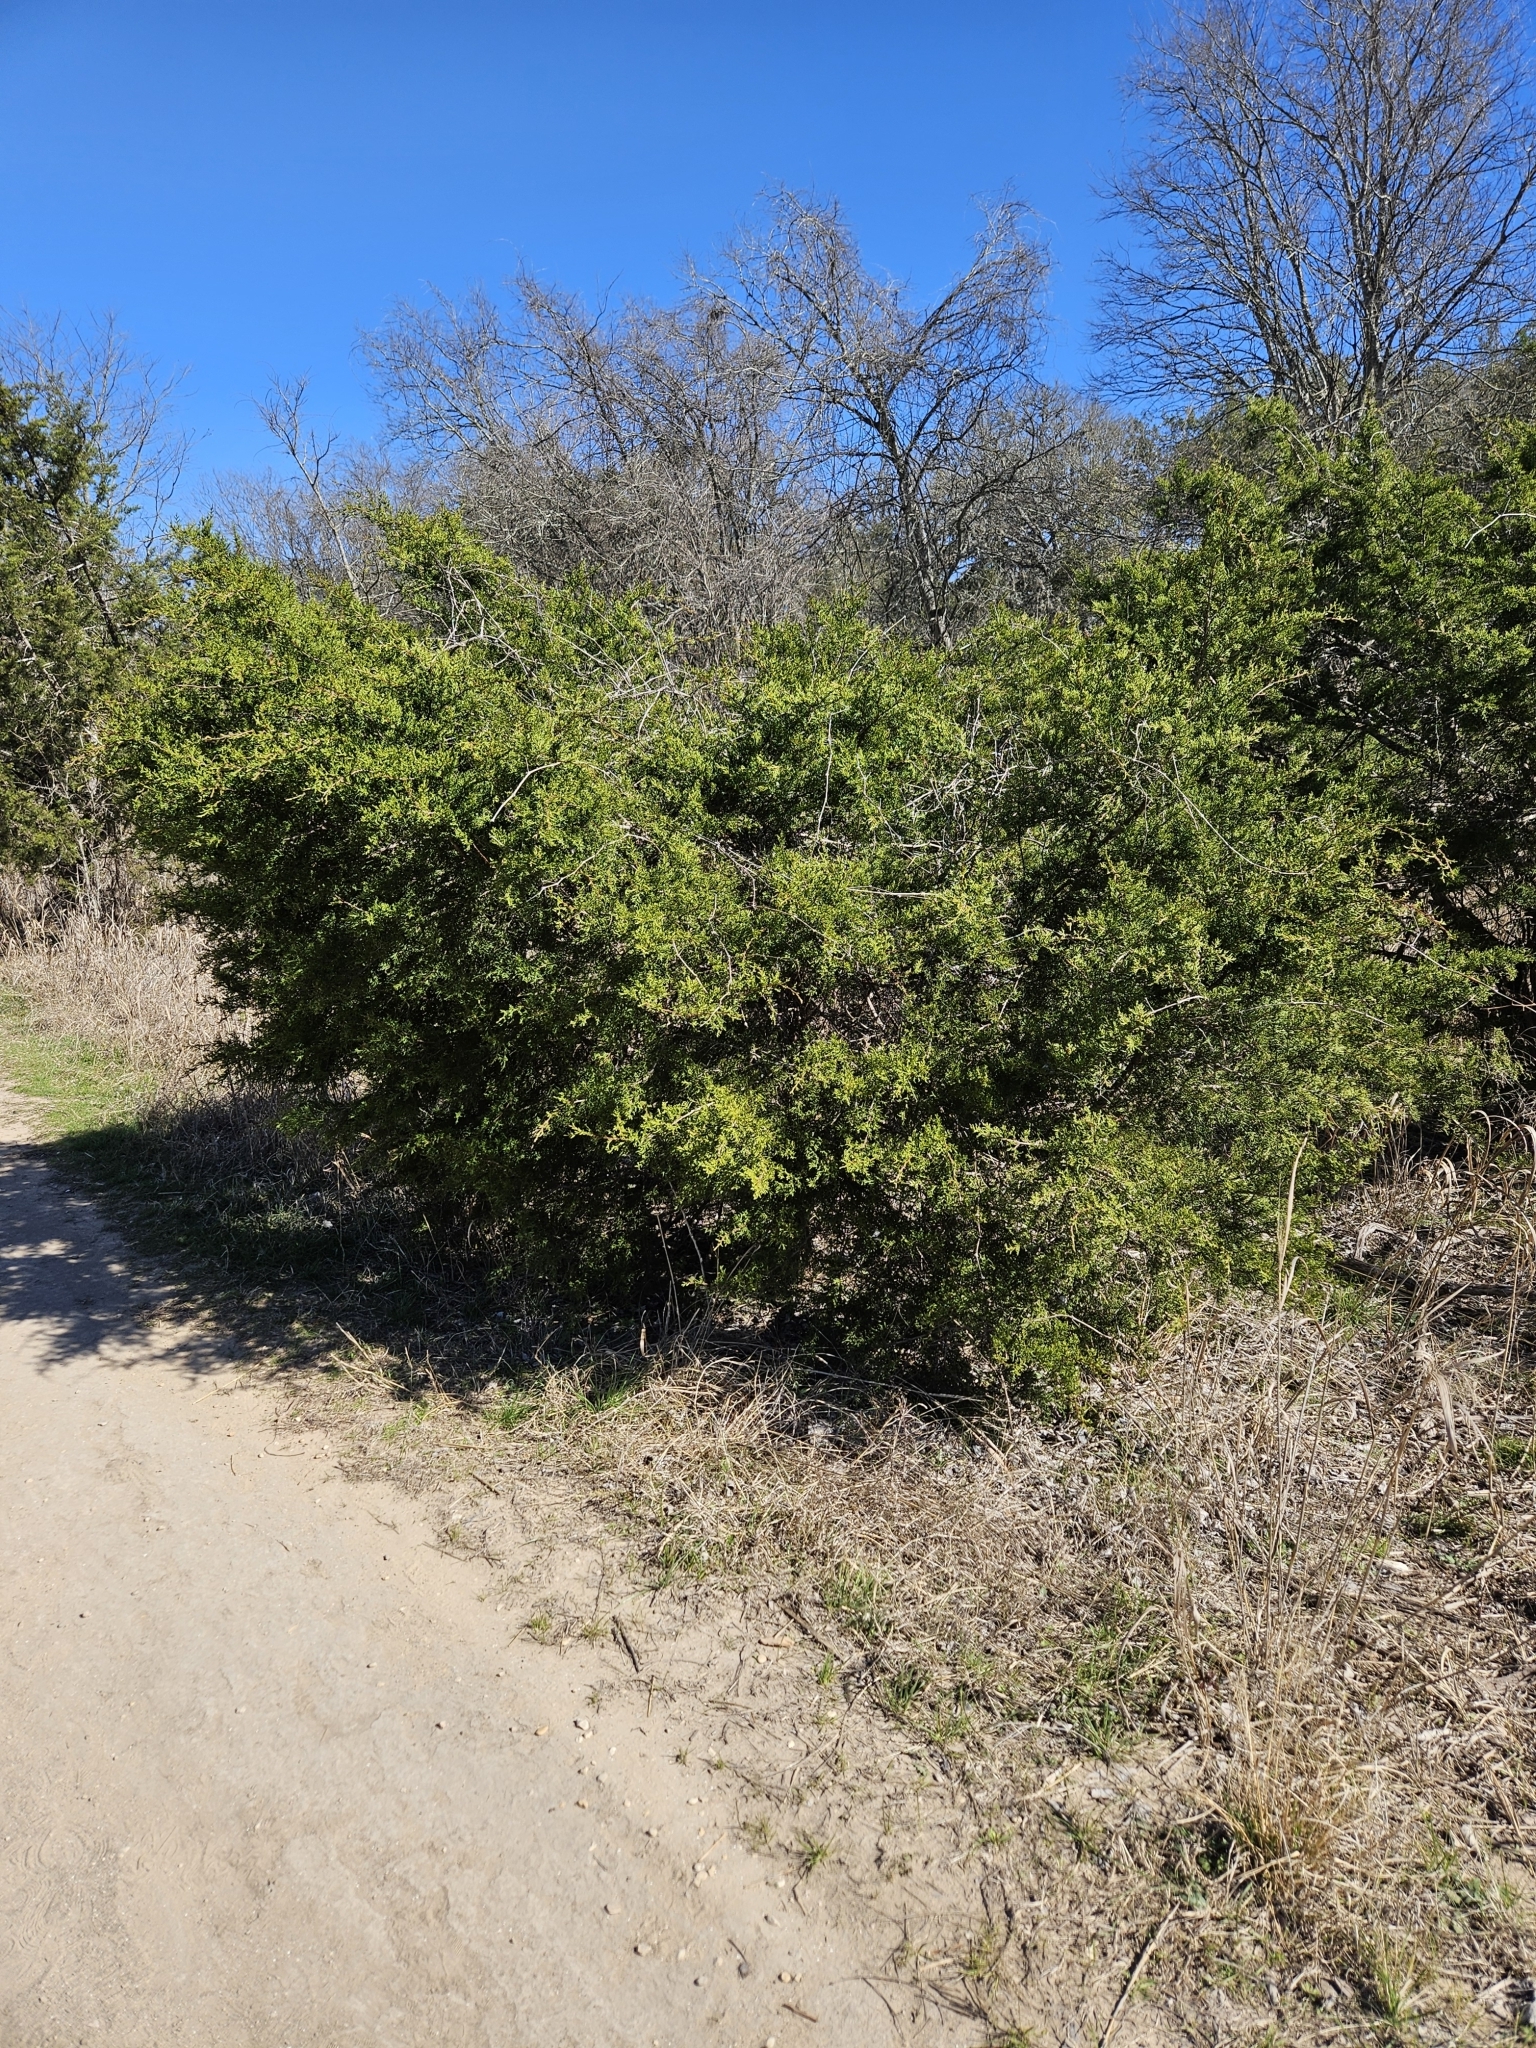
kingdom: Plantae
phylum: Tracheophyta
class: Pinopsida
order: Pinales
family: Cupressaceae
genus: Juniperus
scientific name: Juniperus ashei
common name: Mexican juniper
